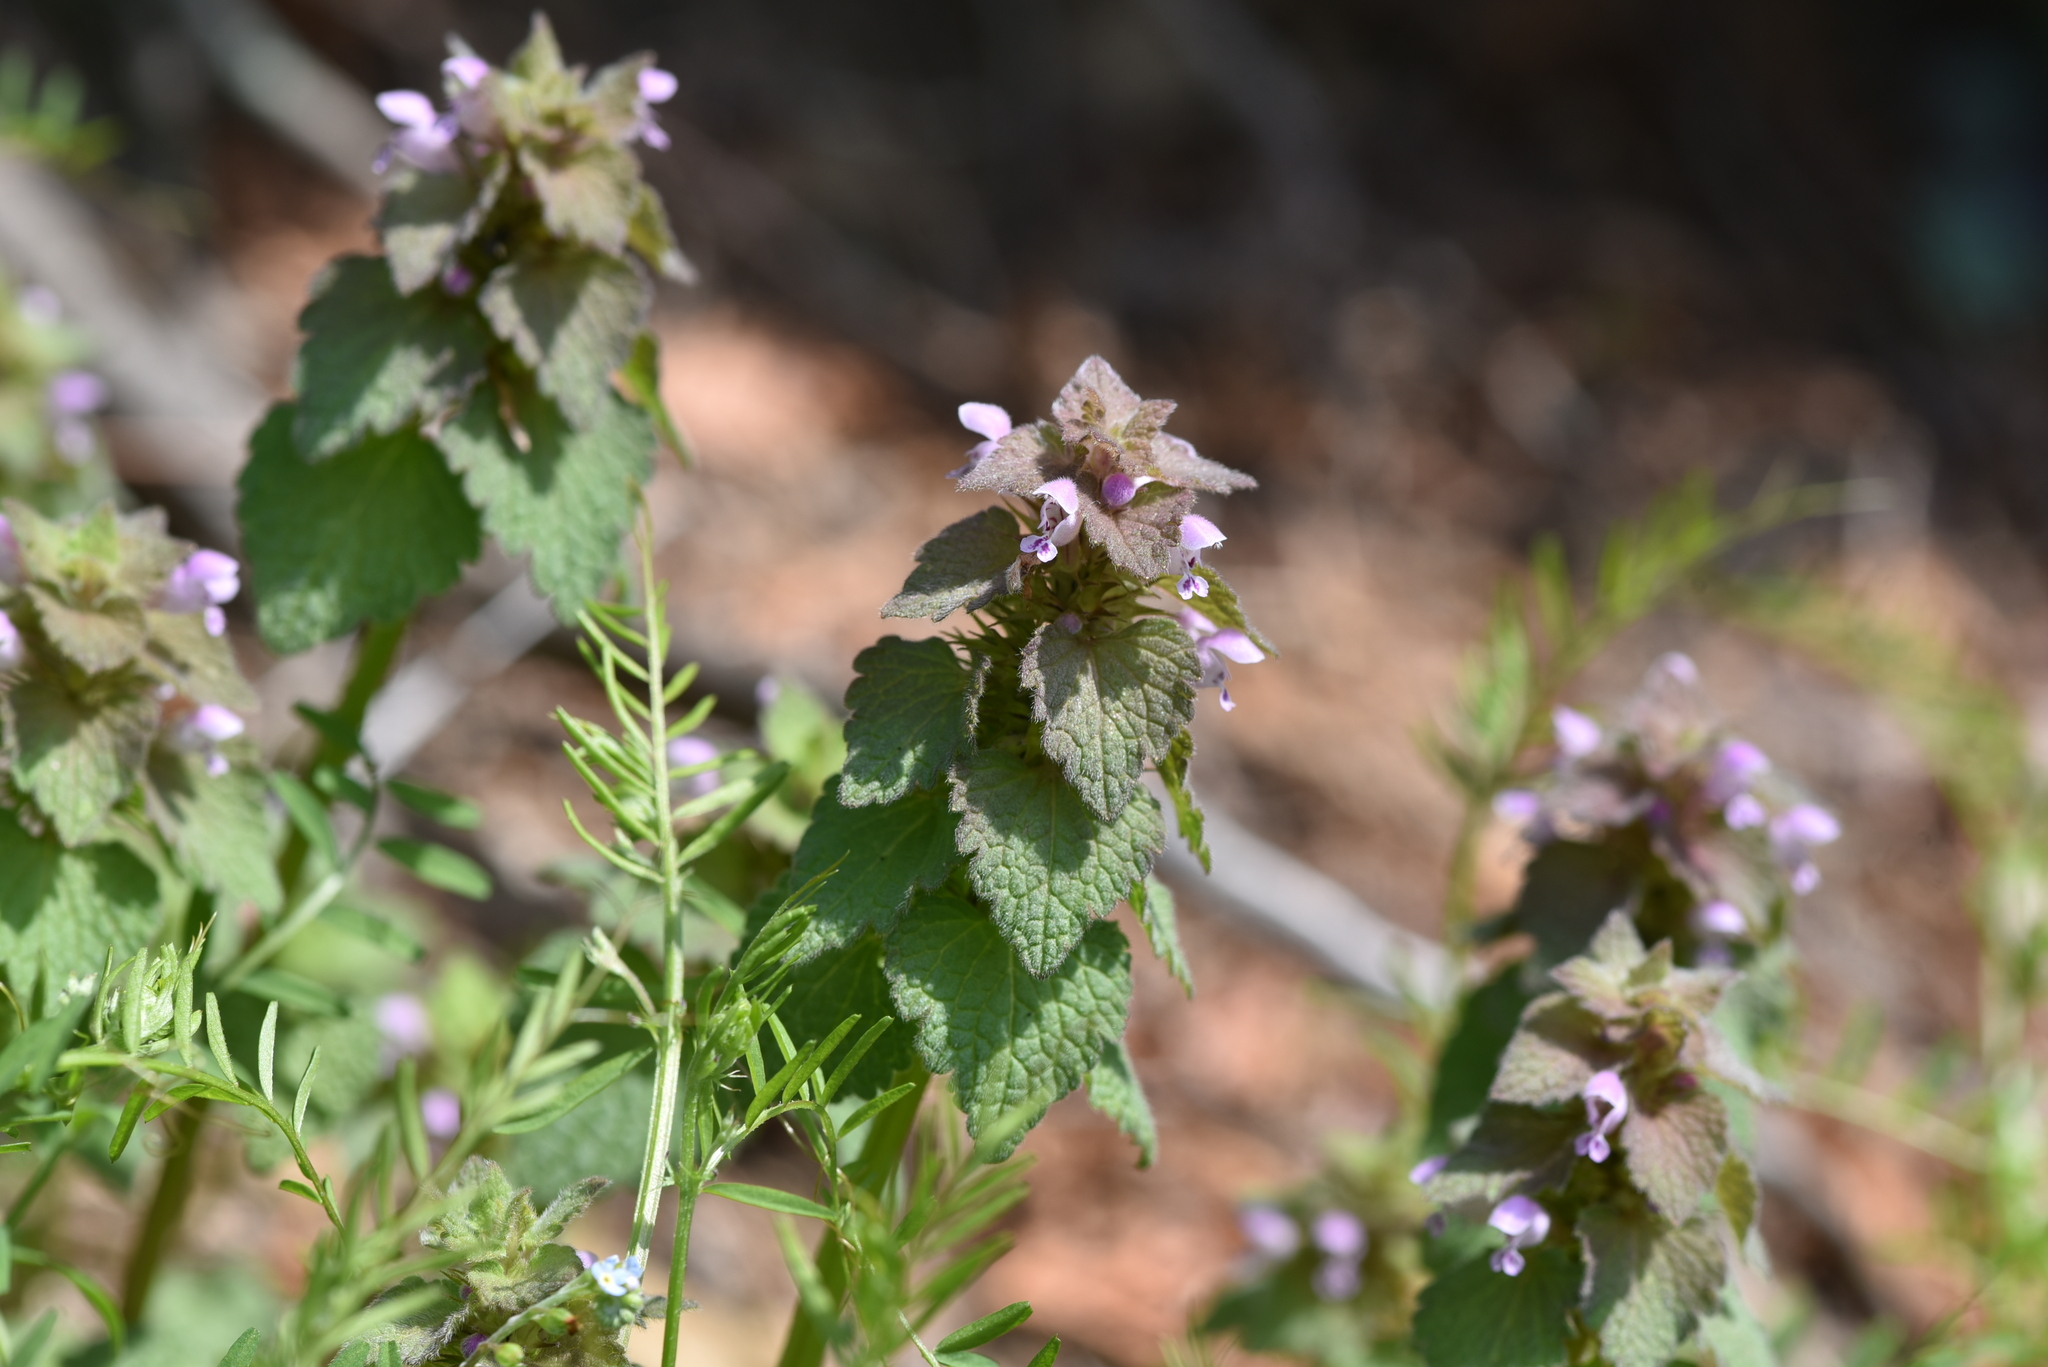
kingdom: Plantae
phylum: Tracheophyta
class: Magnoliopsida
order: Lamiales
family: Lamiaceae
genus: Lamium
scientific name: Lamium purpureum
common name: Red dead-nettle
